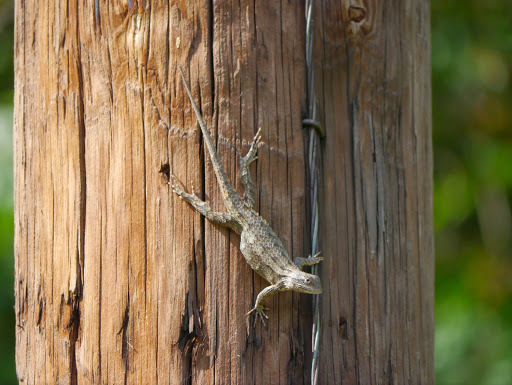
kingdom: Animalia
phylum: Chordata
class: Squamata
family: Phrynosomatidae
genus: Sceloporus
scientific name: Sceloporus olivaceus
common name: Texas spiny lizard
